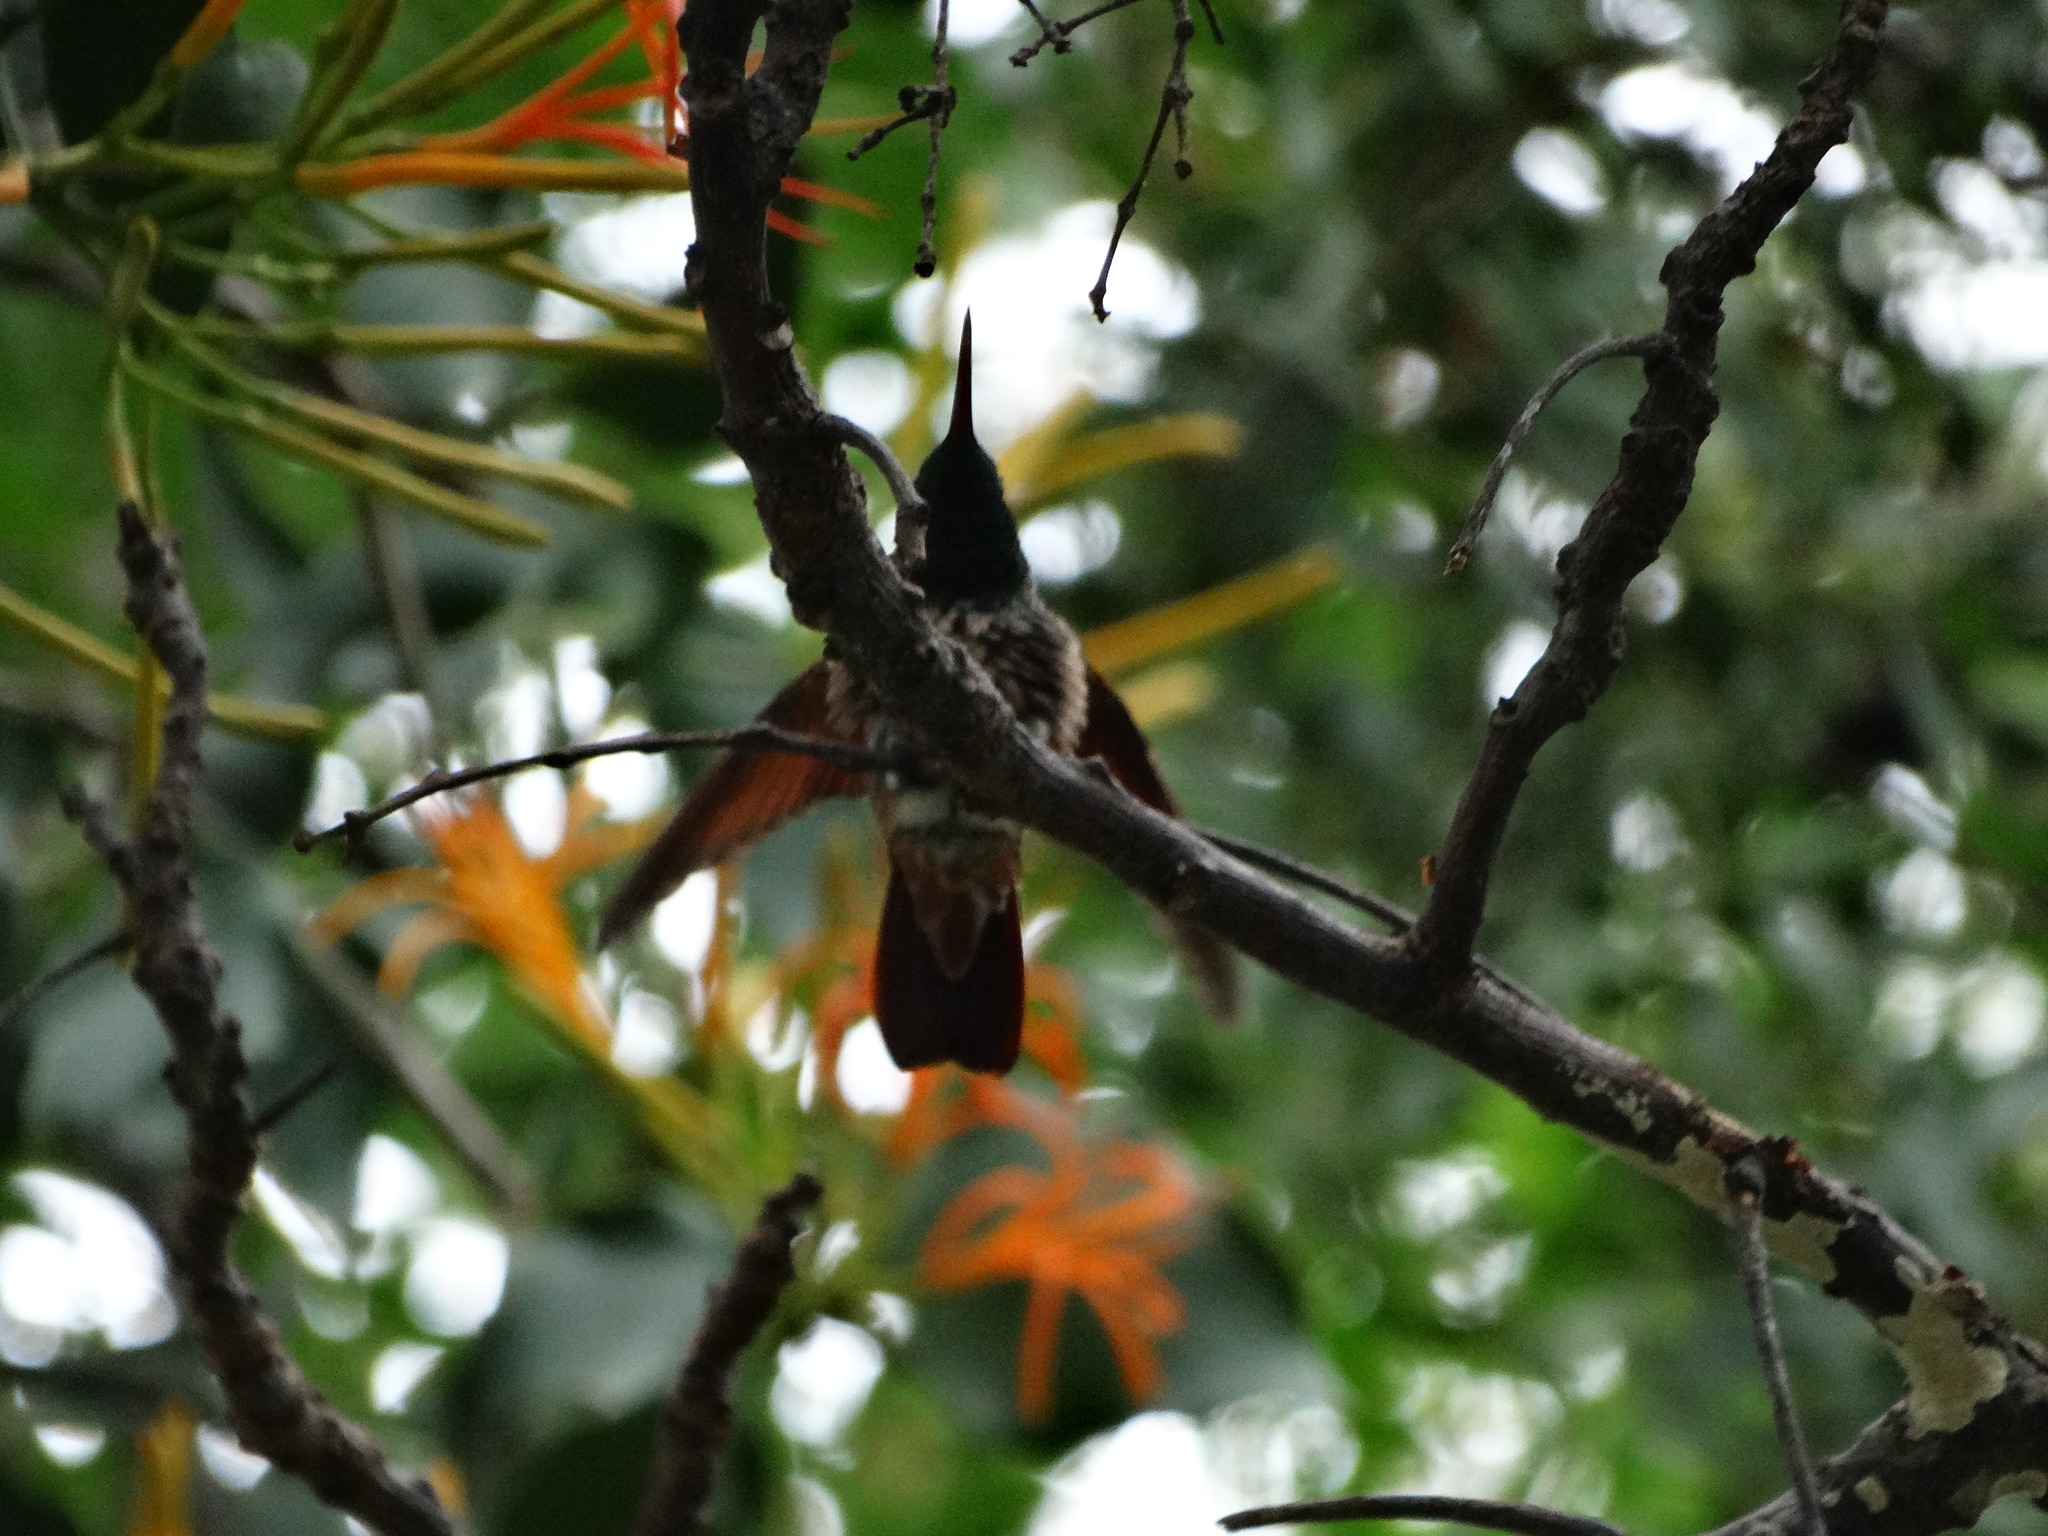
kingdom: Animalia
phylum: Chordata
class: Aves
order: Apodiformes
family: Trochilidae
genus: Saucerottia
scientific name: Saucerottia beryllina
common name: Berylline hummingbird
